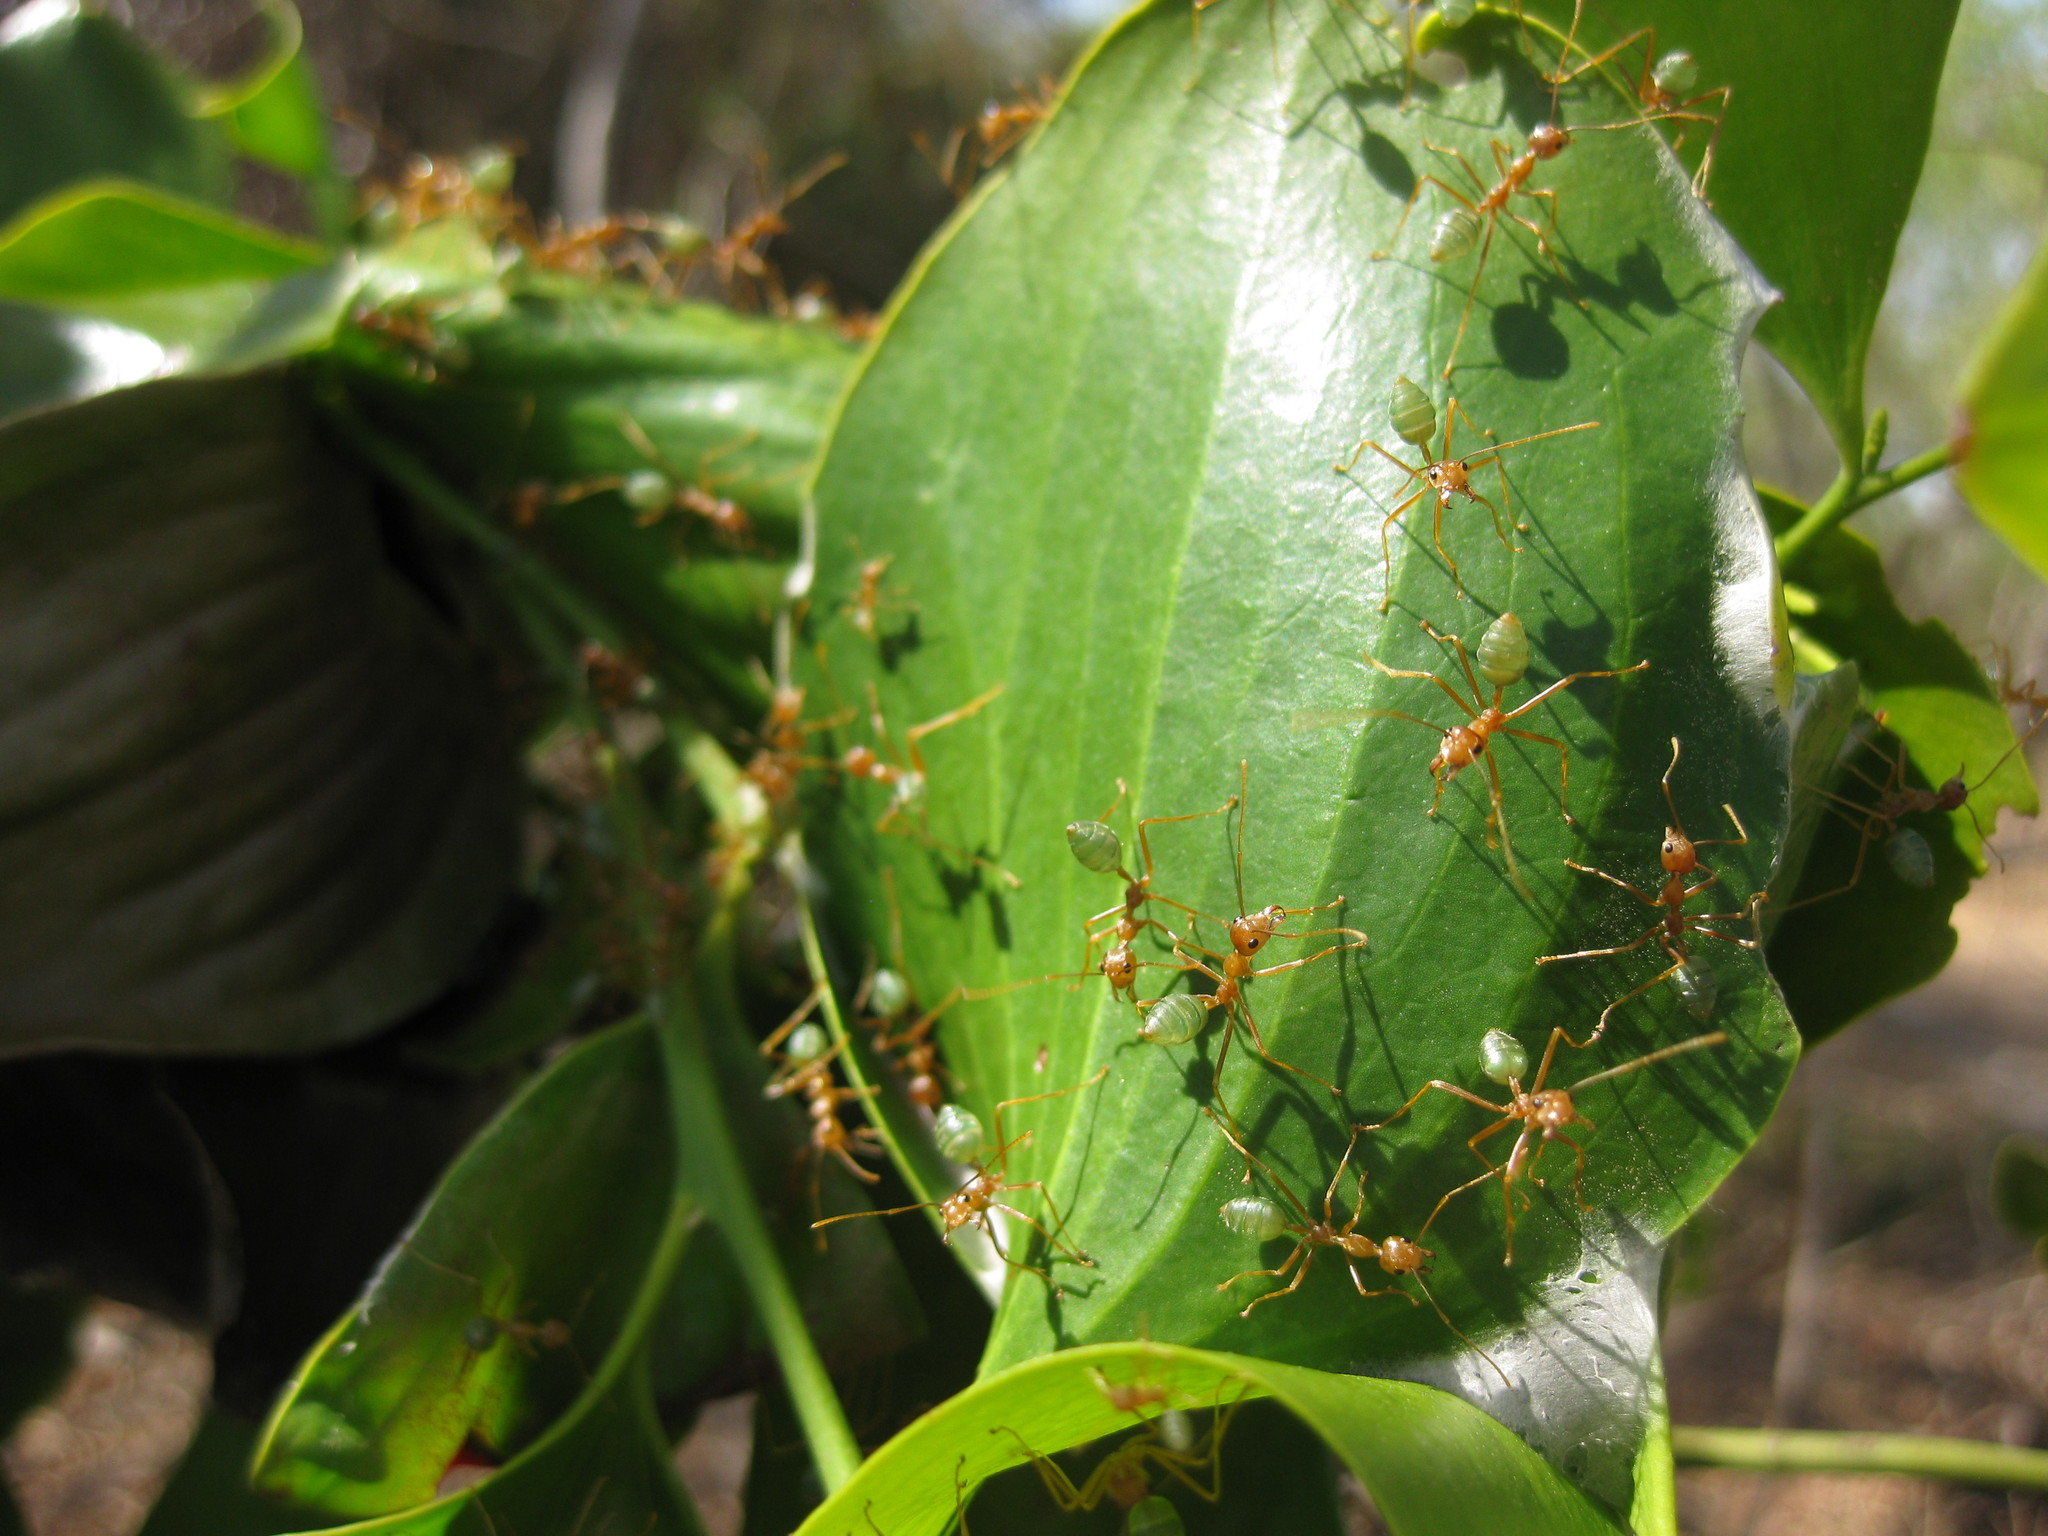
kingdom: Animalia
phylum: Arthropoda
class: Insecta
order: Hymenoptera
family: Formicidae
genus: Oecophylla
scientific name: Oecophylla smaragdina
